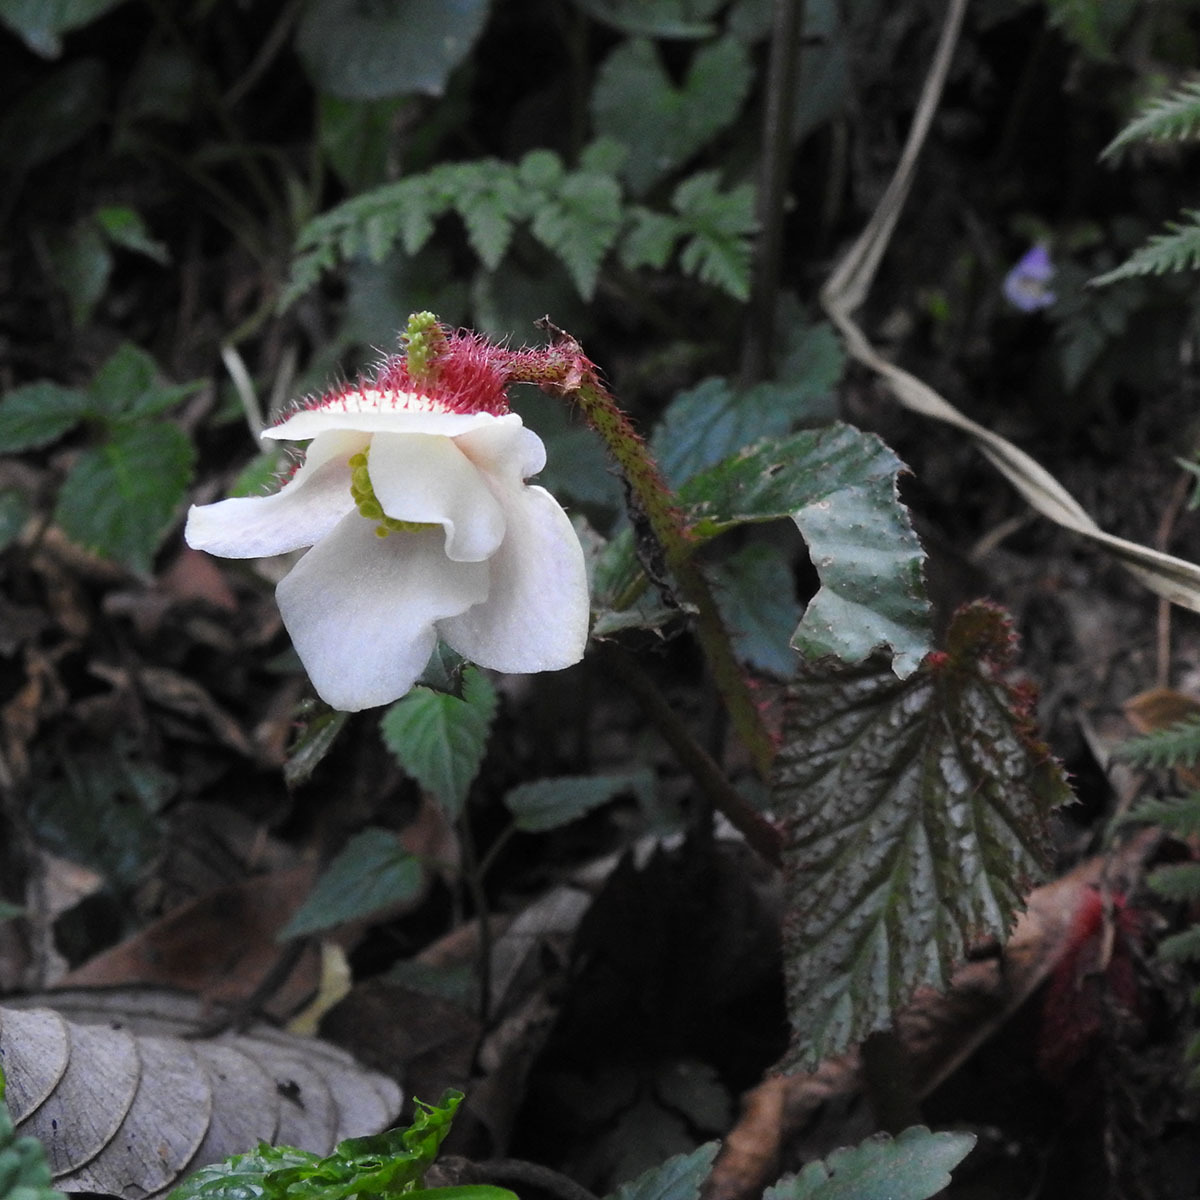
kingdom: Plantae
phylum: Tracheophyta
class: Magnoliopsida
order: Cucurbitales
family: Begoniaceae
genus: Begonia
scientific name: Begonia cathcartii
